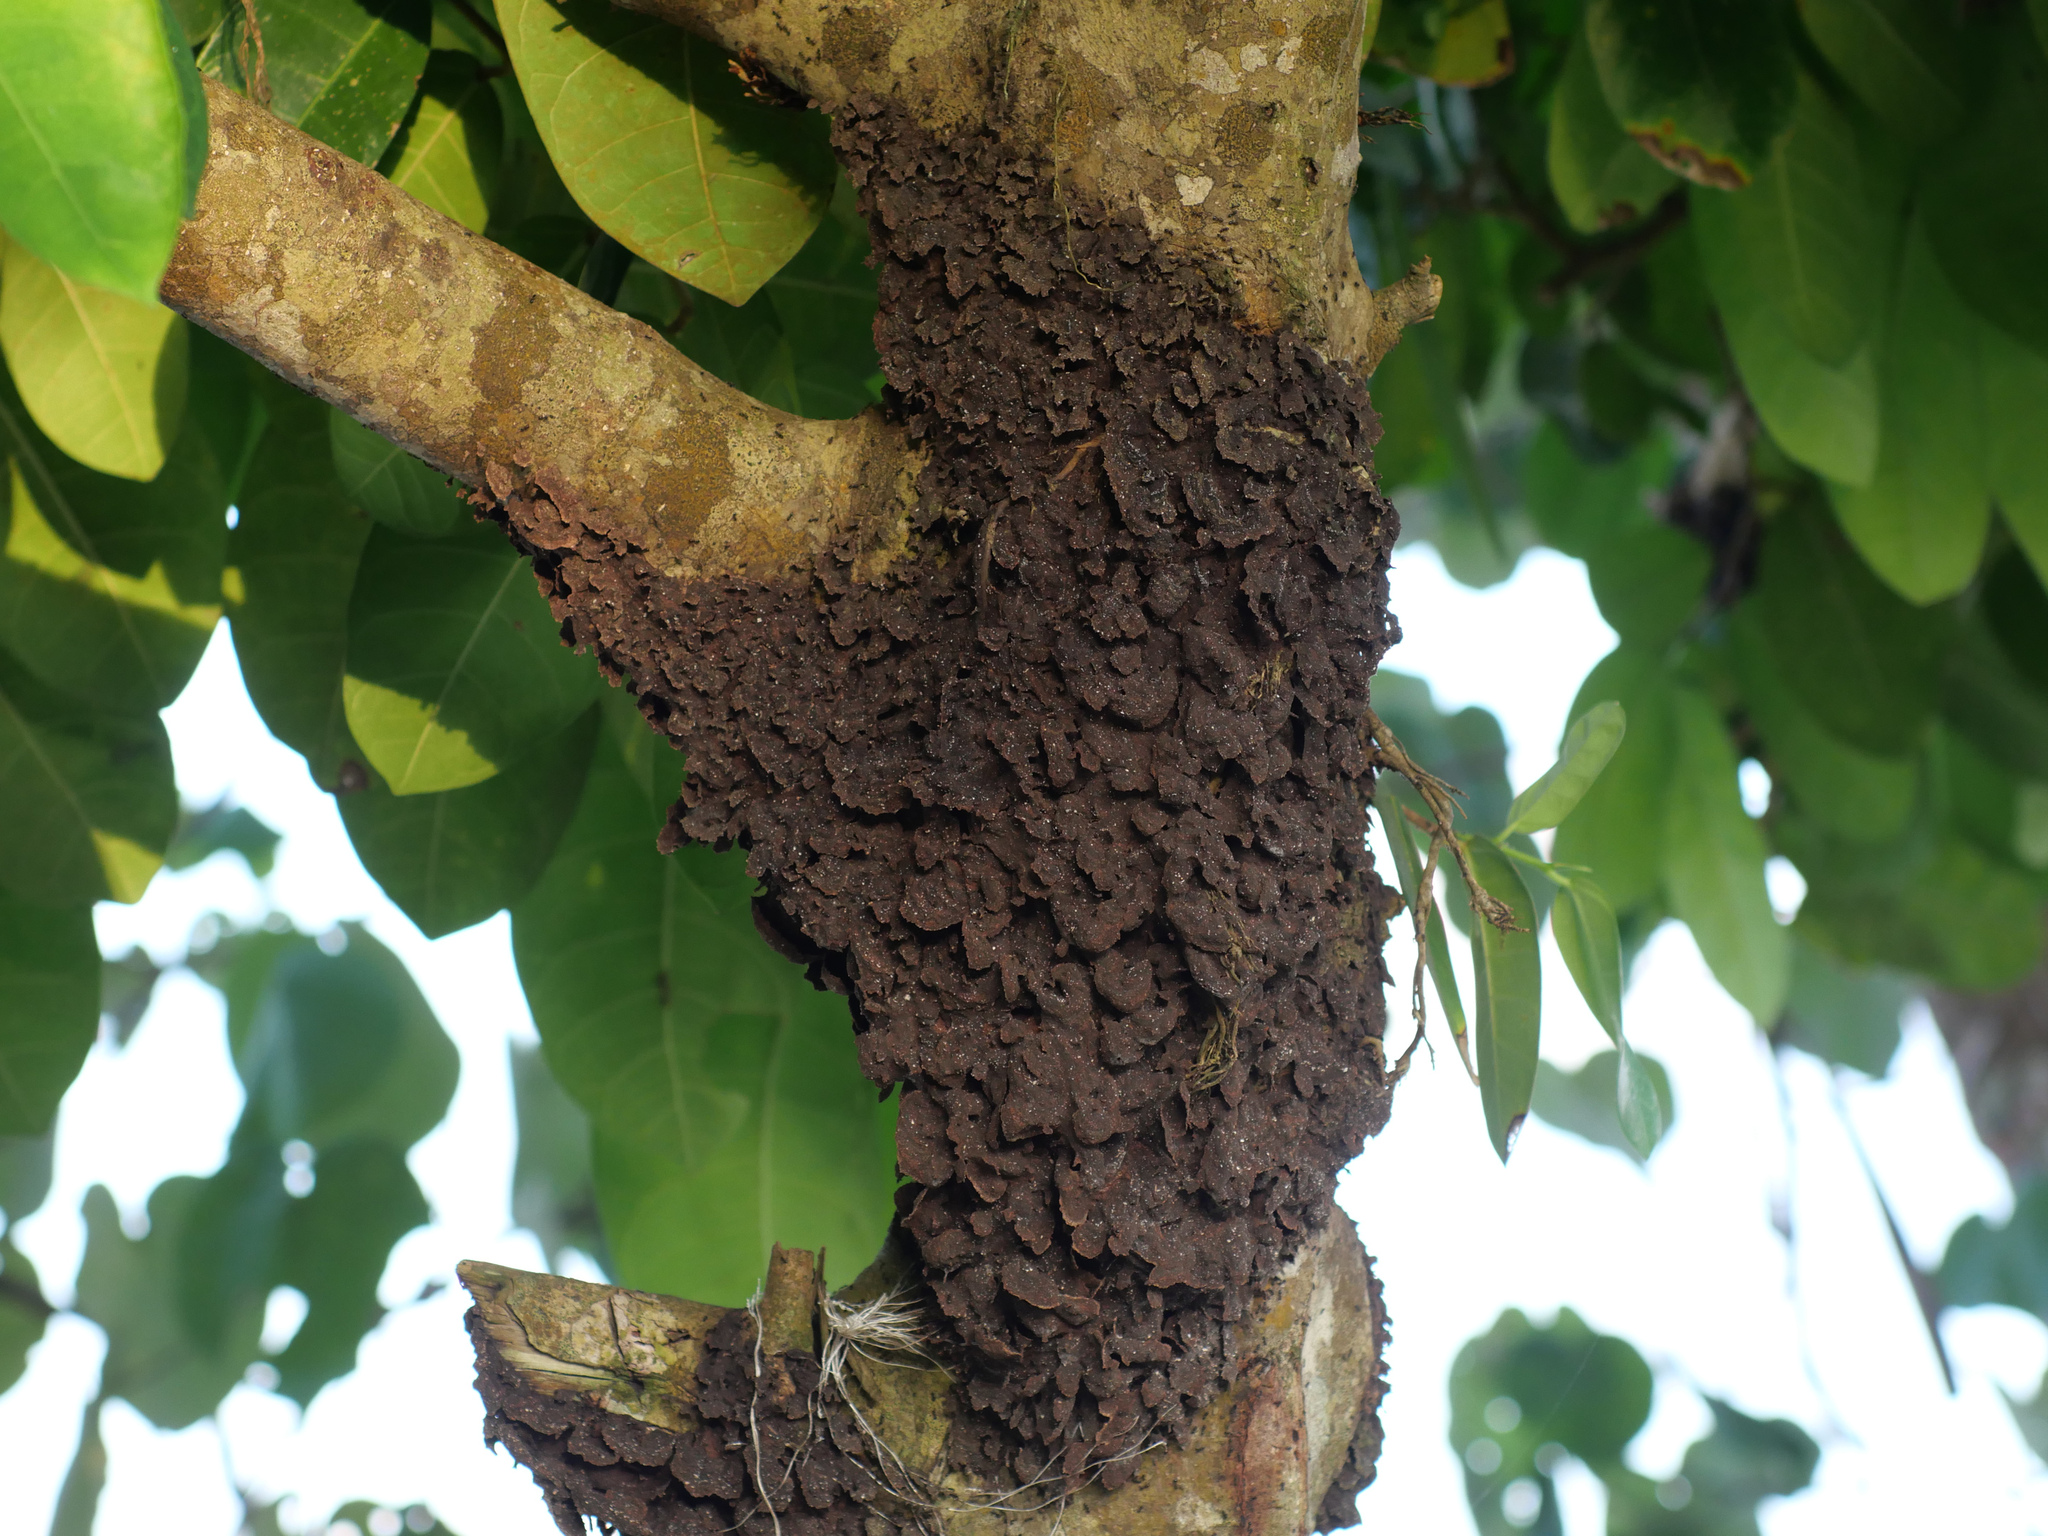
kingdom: Animalia
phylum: Arthropoda
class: Insecta
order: Hymenoptera
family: Formicidae
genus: Crematogaster
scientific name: Crematogaster polita
